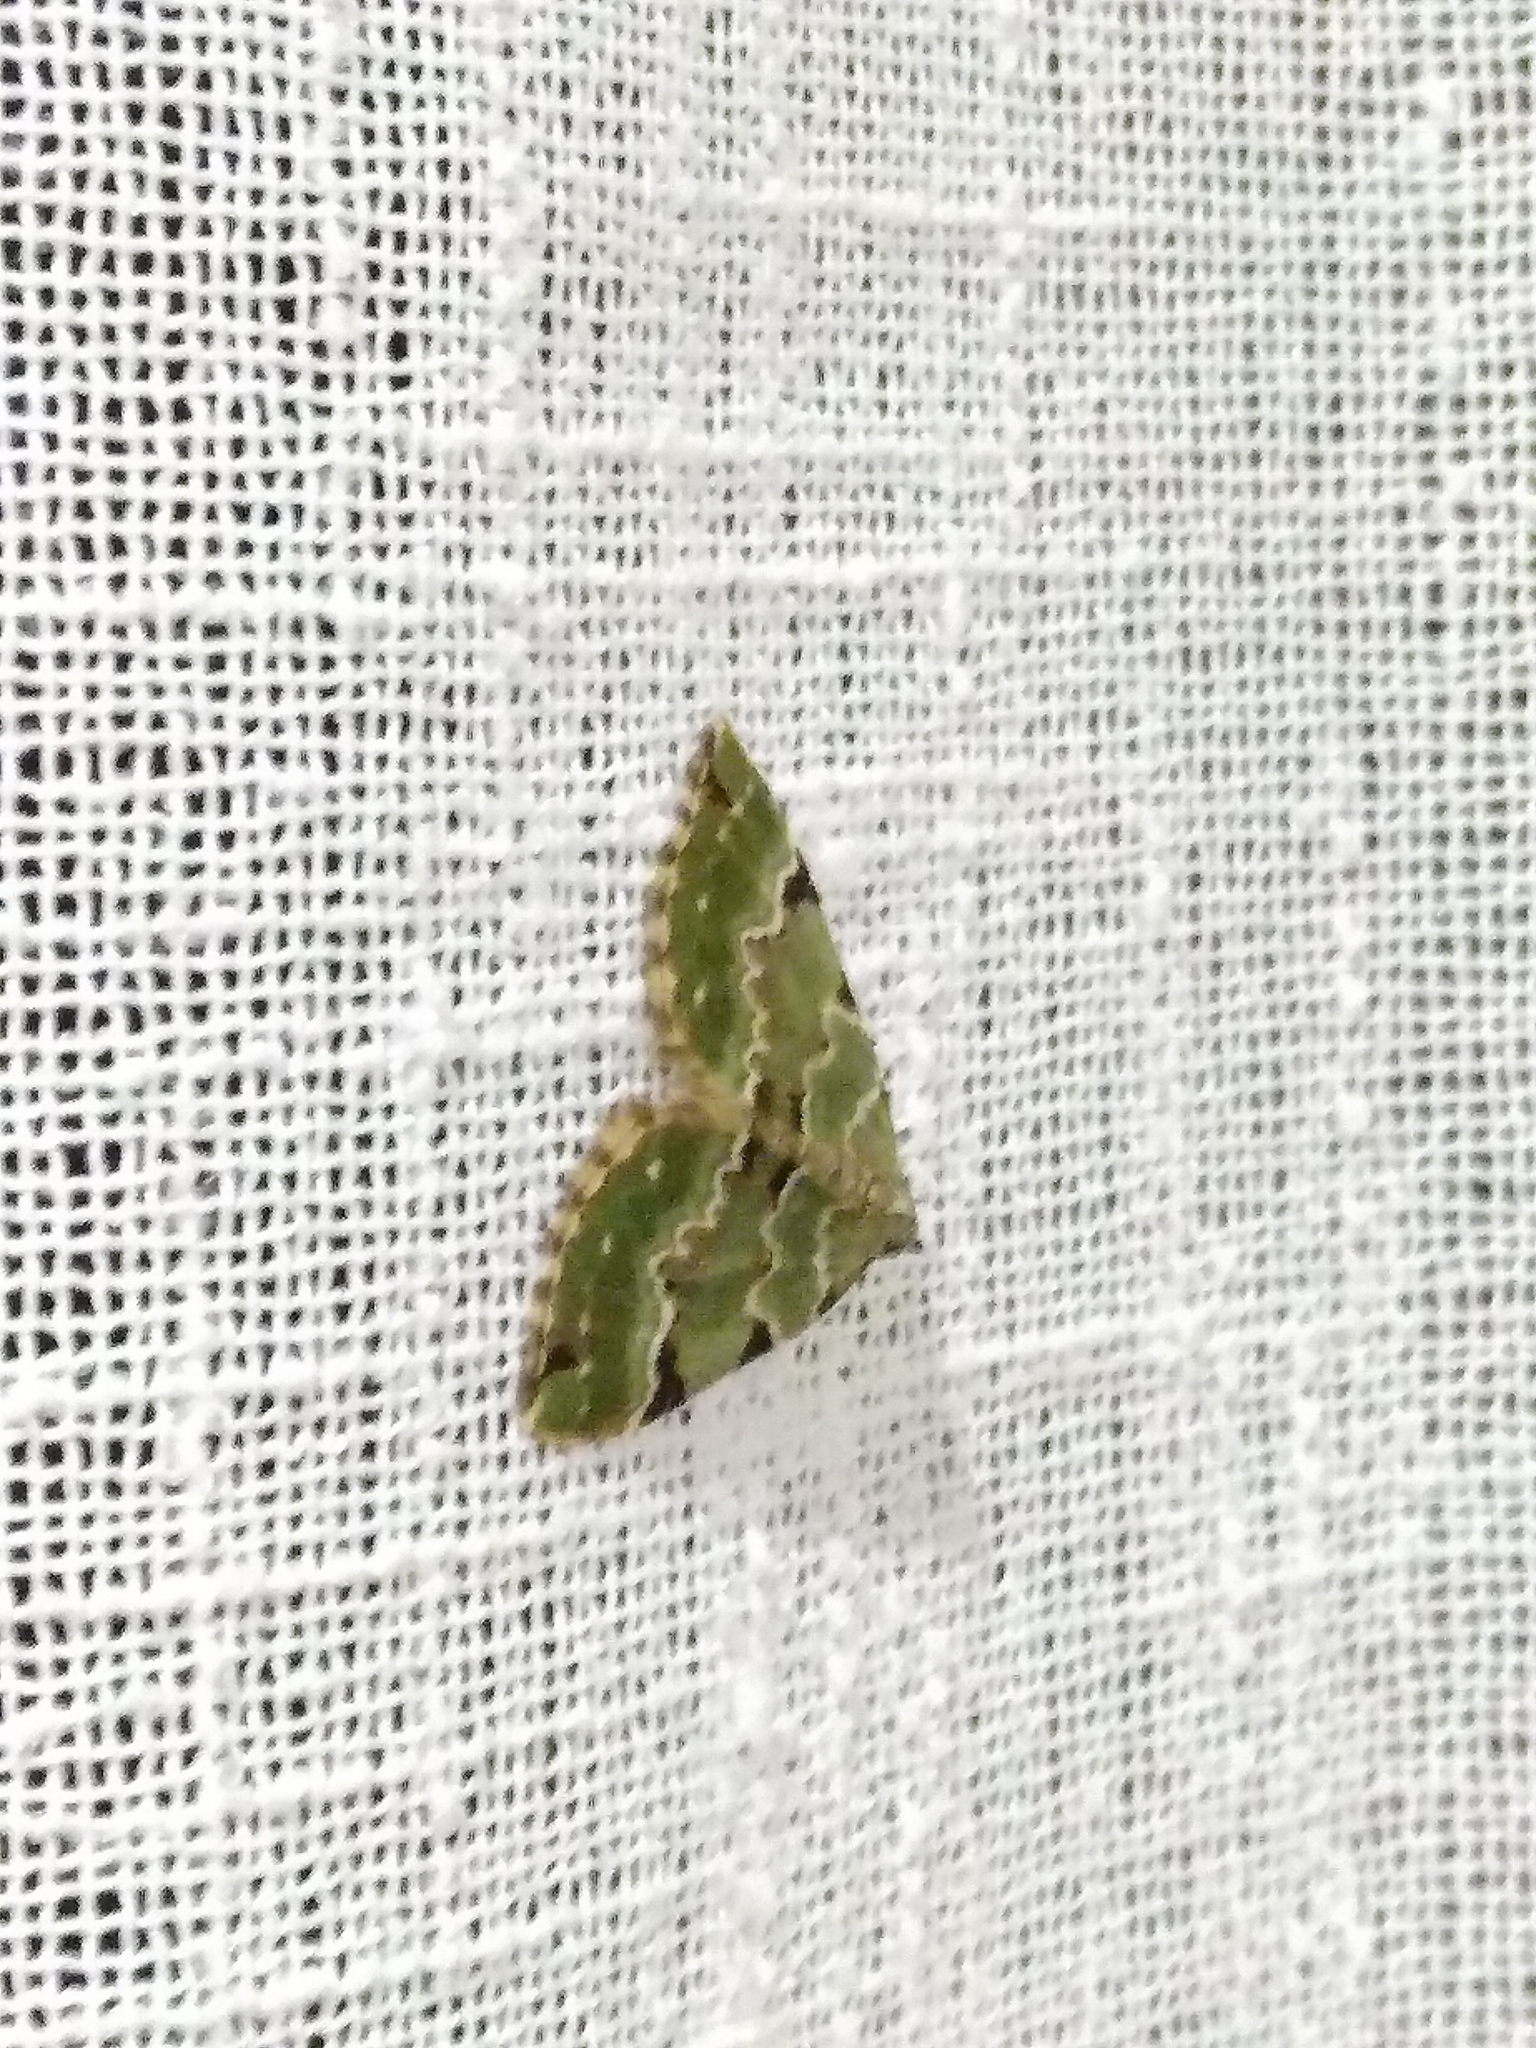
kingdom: Animalia
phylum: Arthropoda
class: Insecta
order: Lepidoptera
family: Geometridae
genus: Colostygia
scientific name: Colostygia pectinataria
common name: Green carpet
